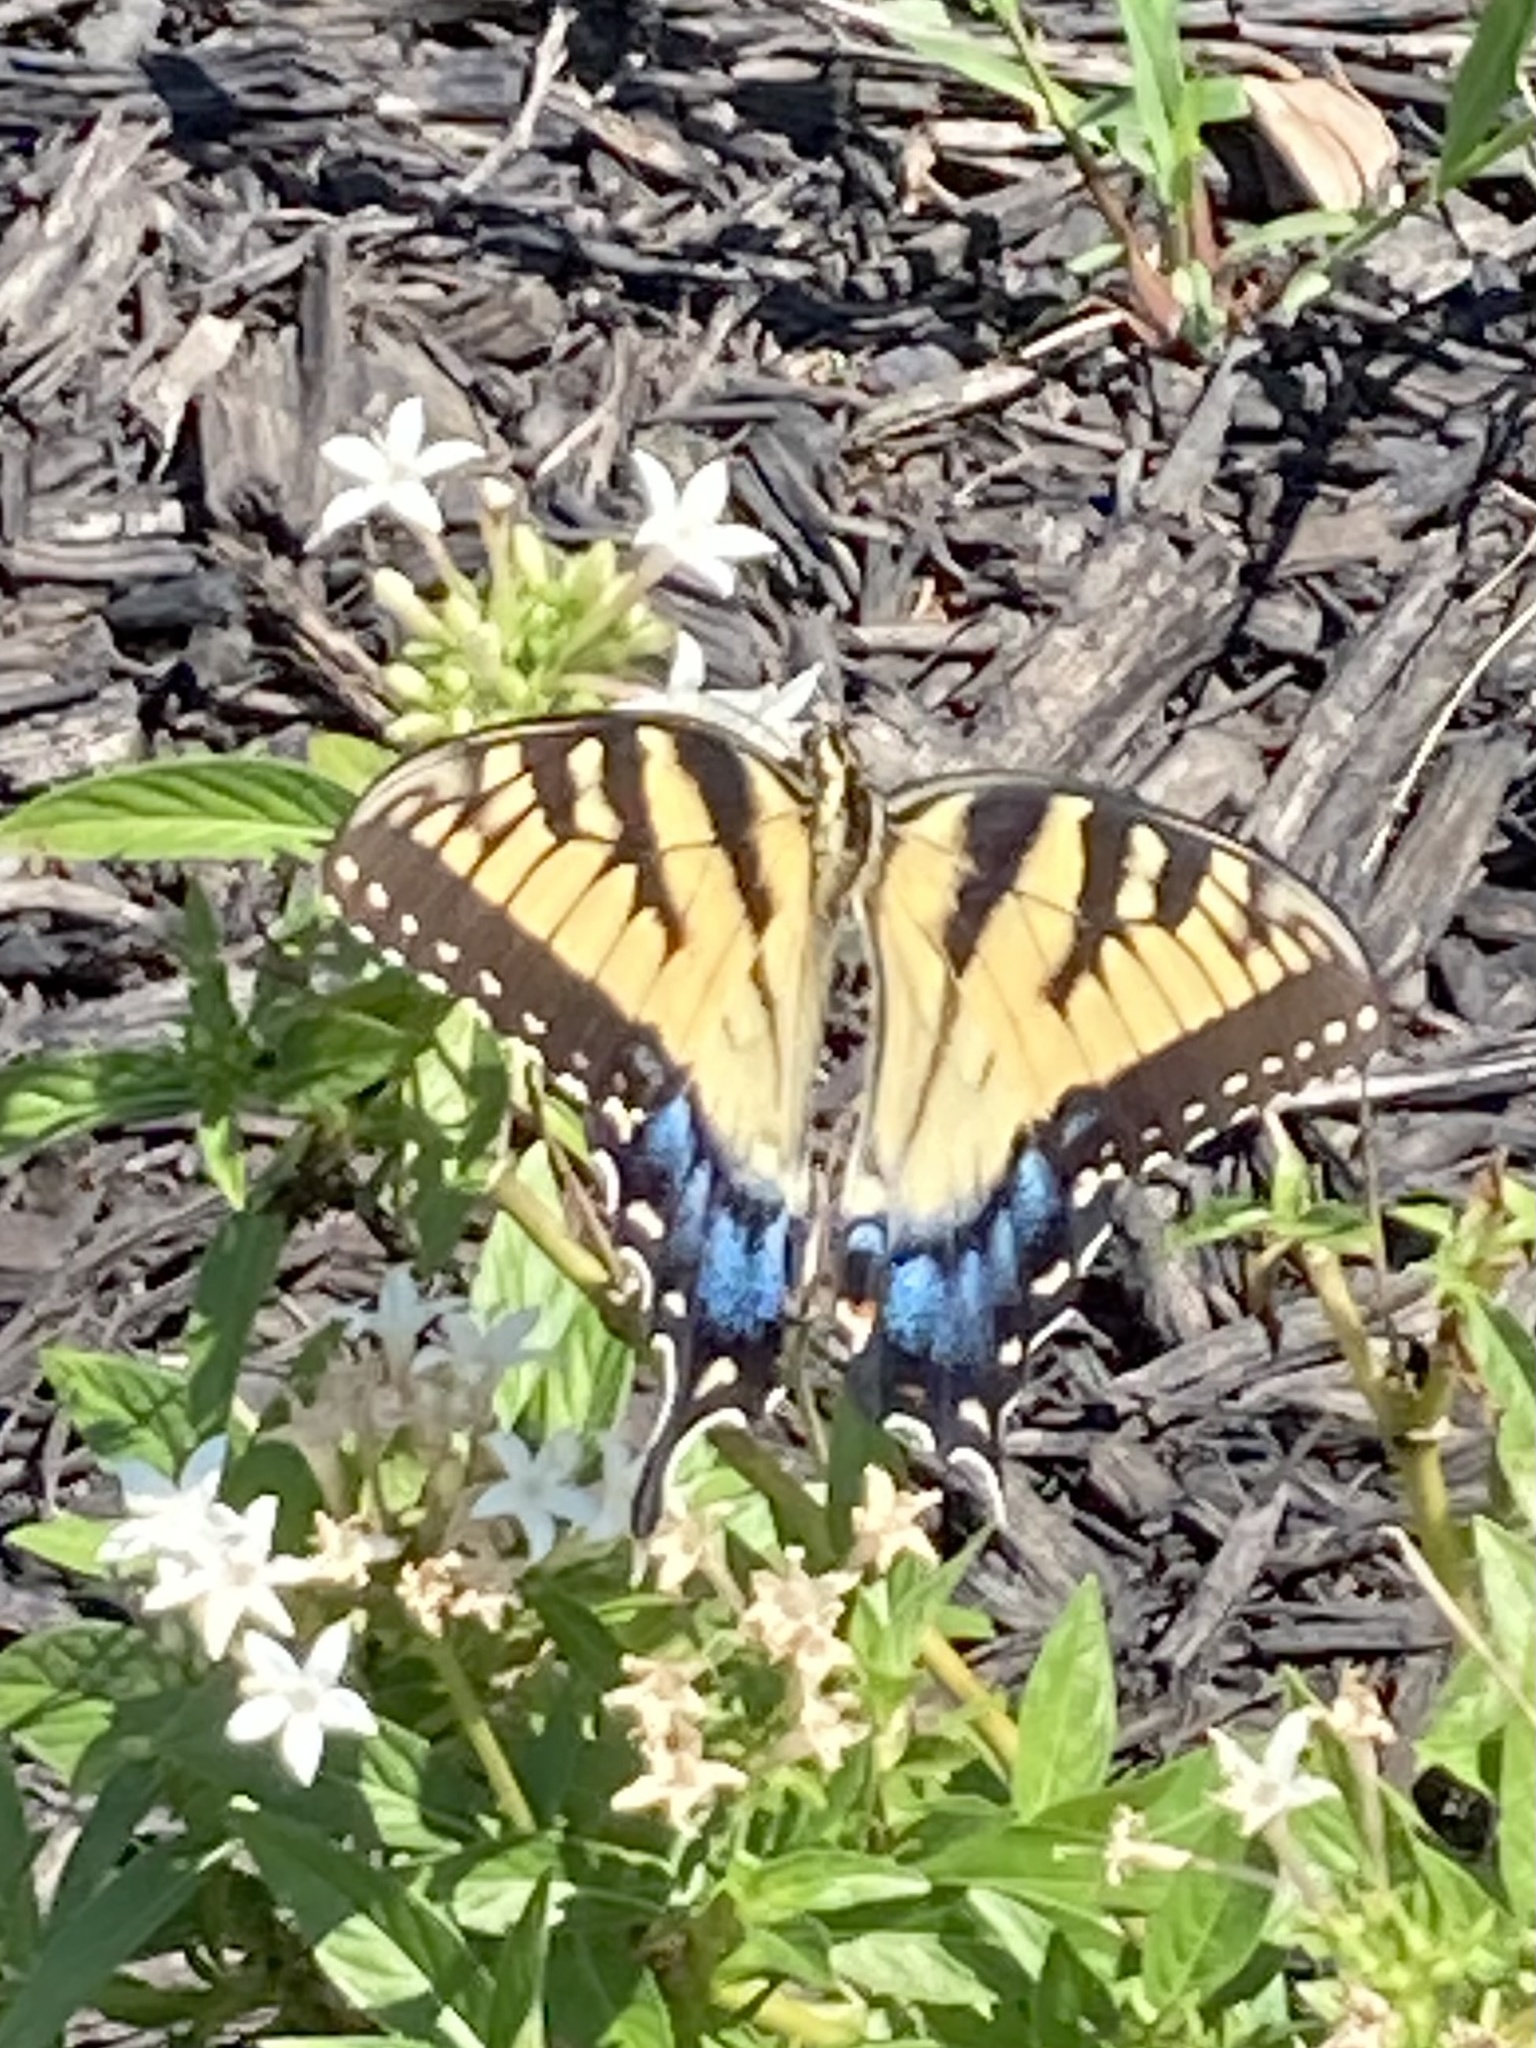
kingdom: Animalia
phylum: Arthropoda
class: Insecta
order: Lepidoptera
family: Papilionidae
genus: Papilio
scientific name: Papilio glaucus
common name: Tiger swallowtail
